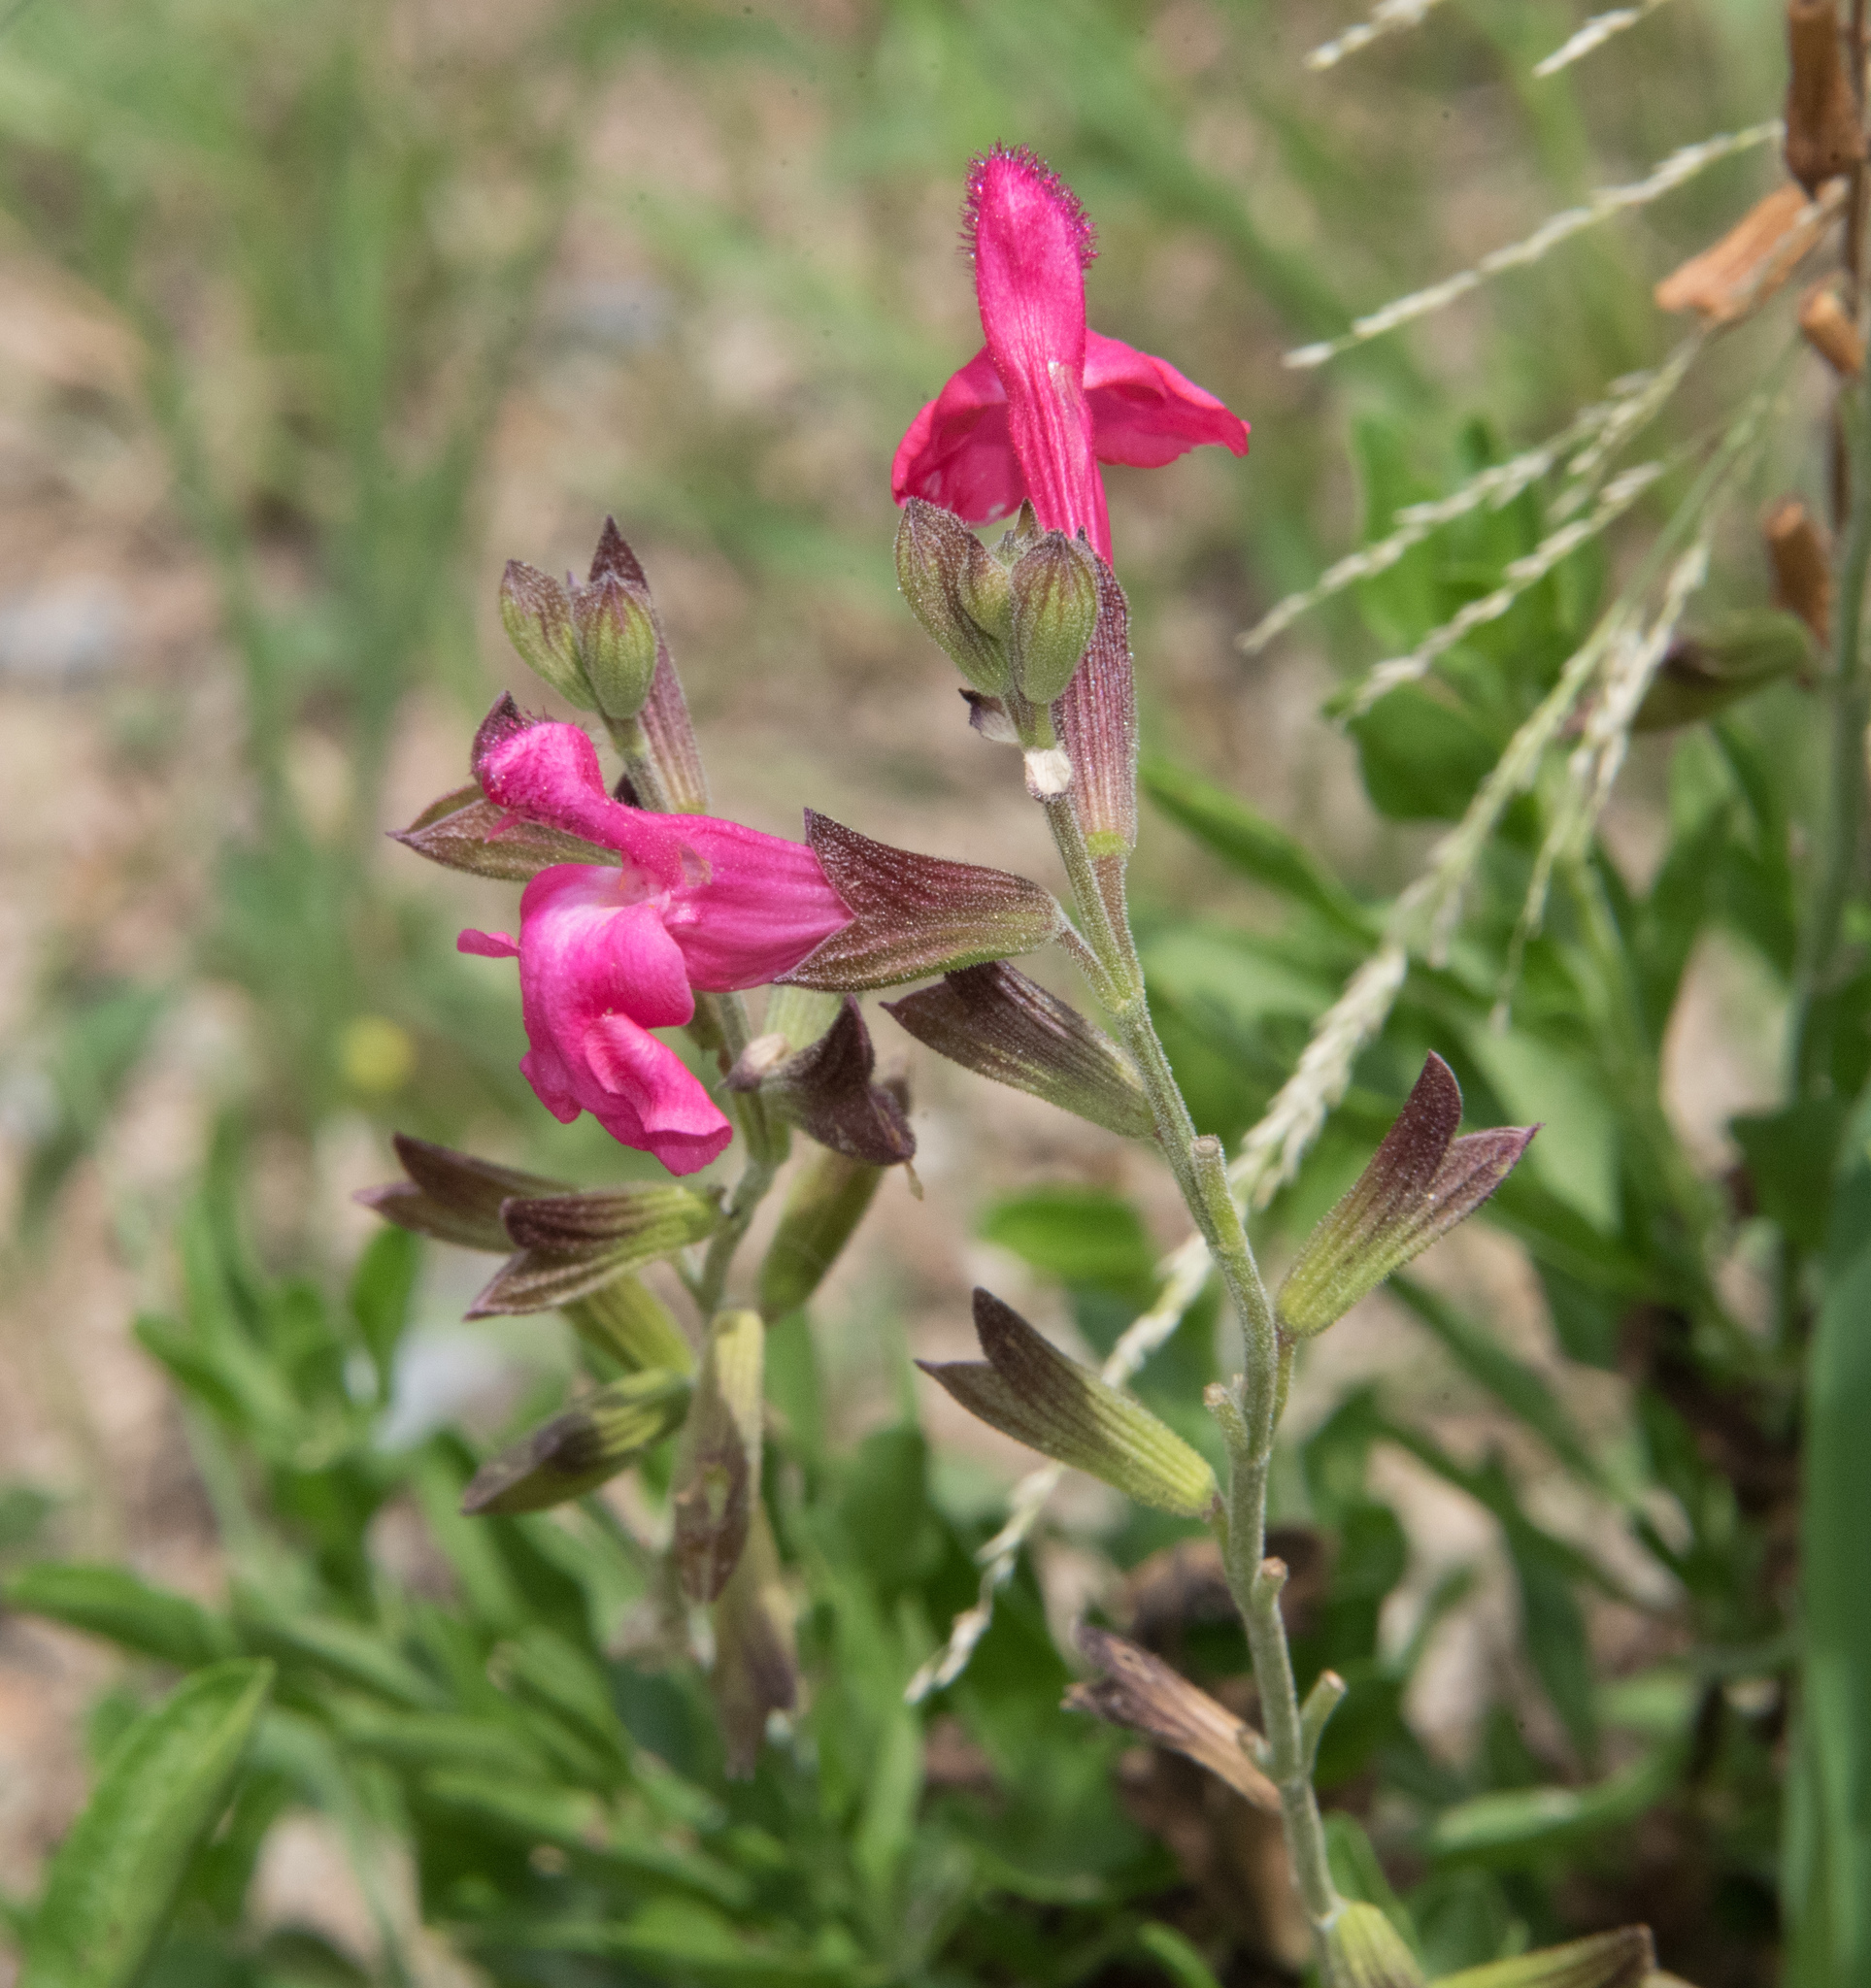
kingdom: Plantae
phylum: Tracheophyta
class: Magnoliopsida
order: Lamiales
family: Lamiaceae
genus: Salvia
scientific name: Salvia microphylla
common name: Baby sage
